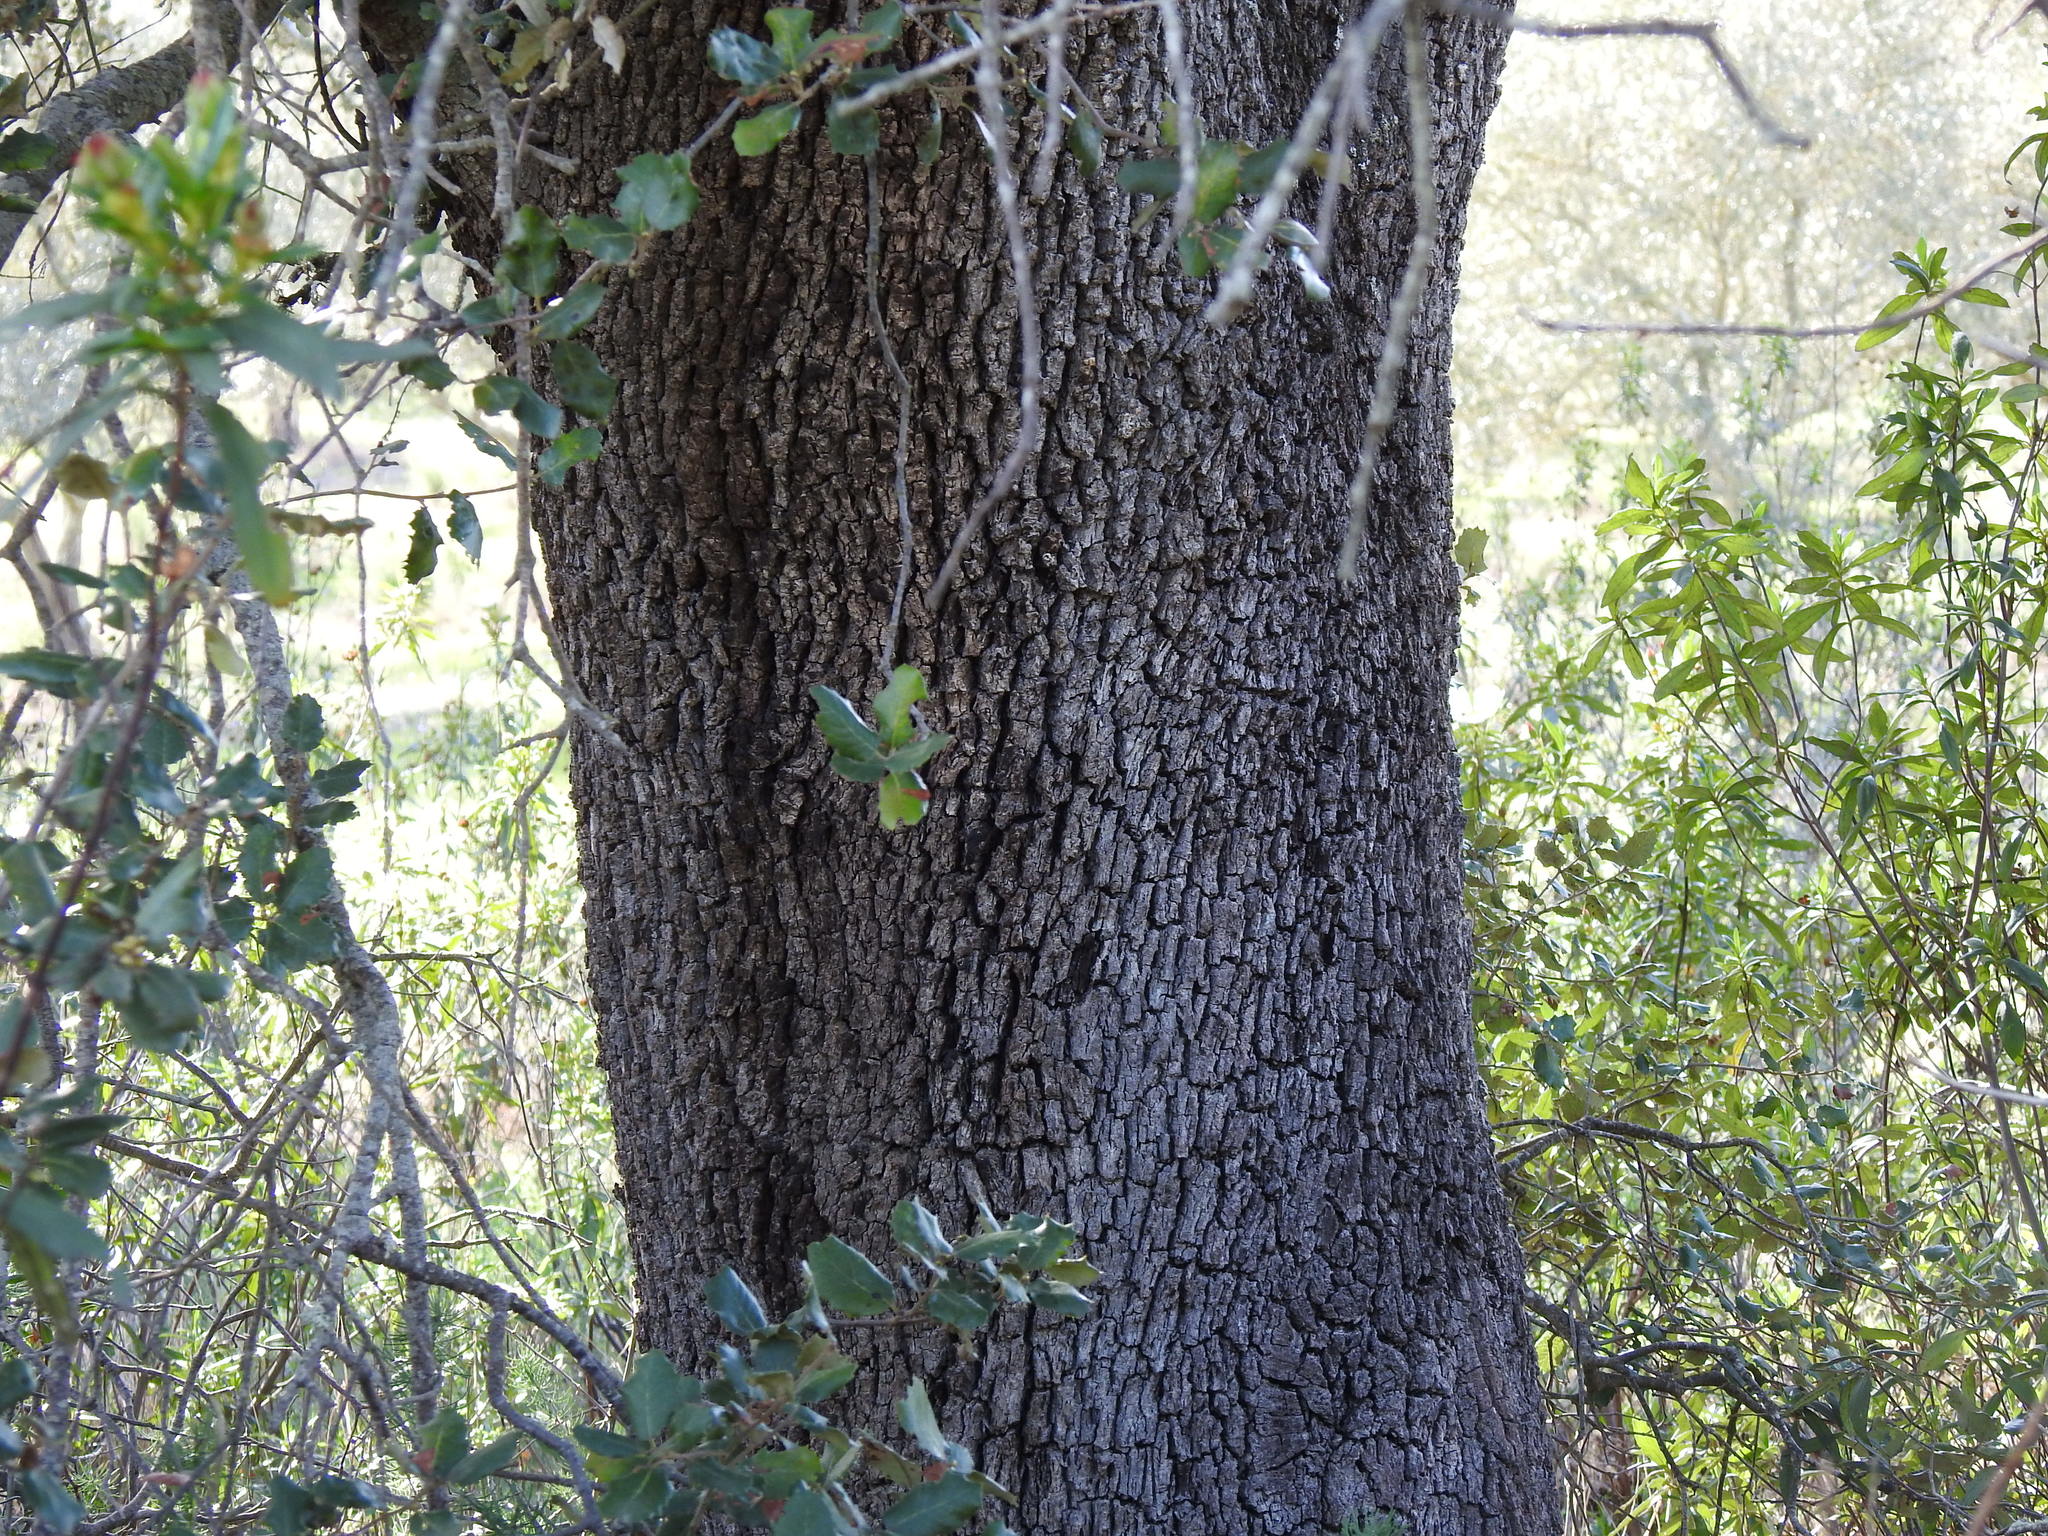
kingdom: Plantae
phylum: Tracheophyta
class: Magnoliopsida
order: Fagales
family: Fagaceae
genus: Quercus
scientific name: Quercus rotundifolia
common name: Holm oak
